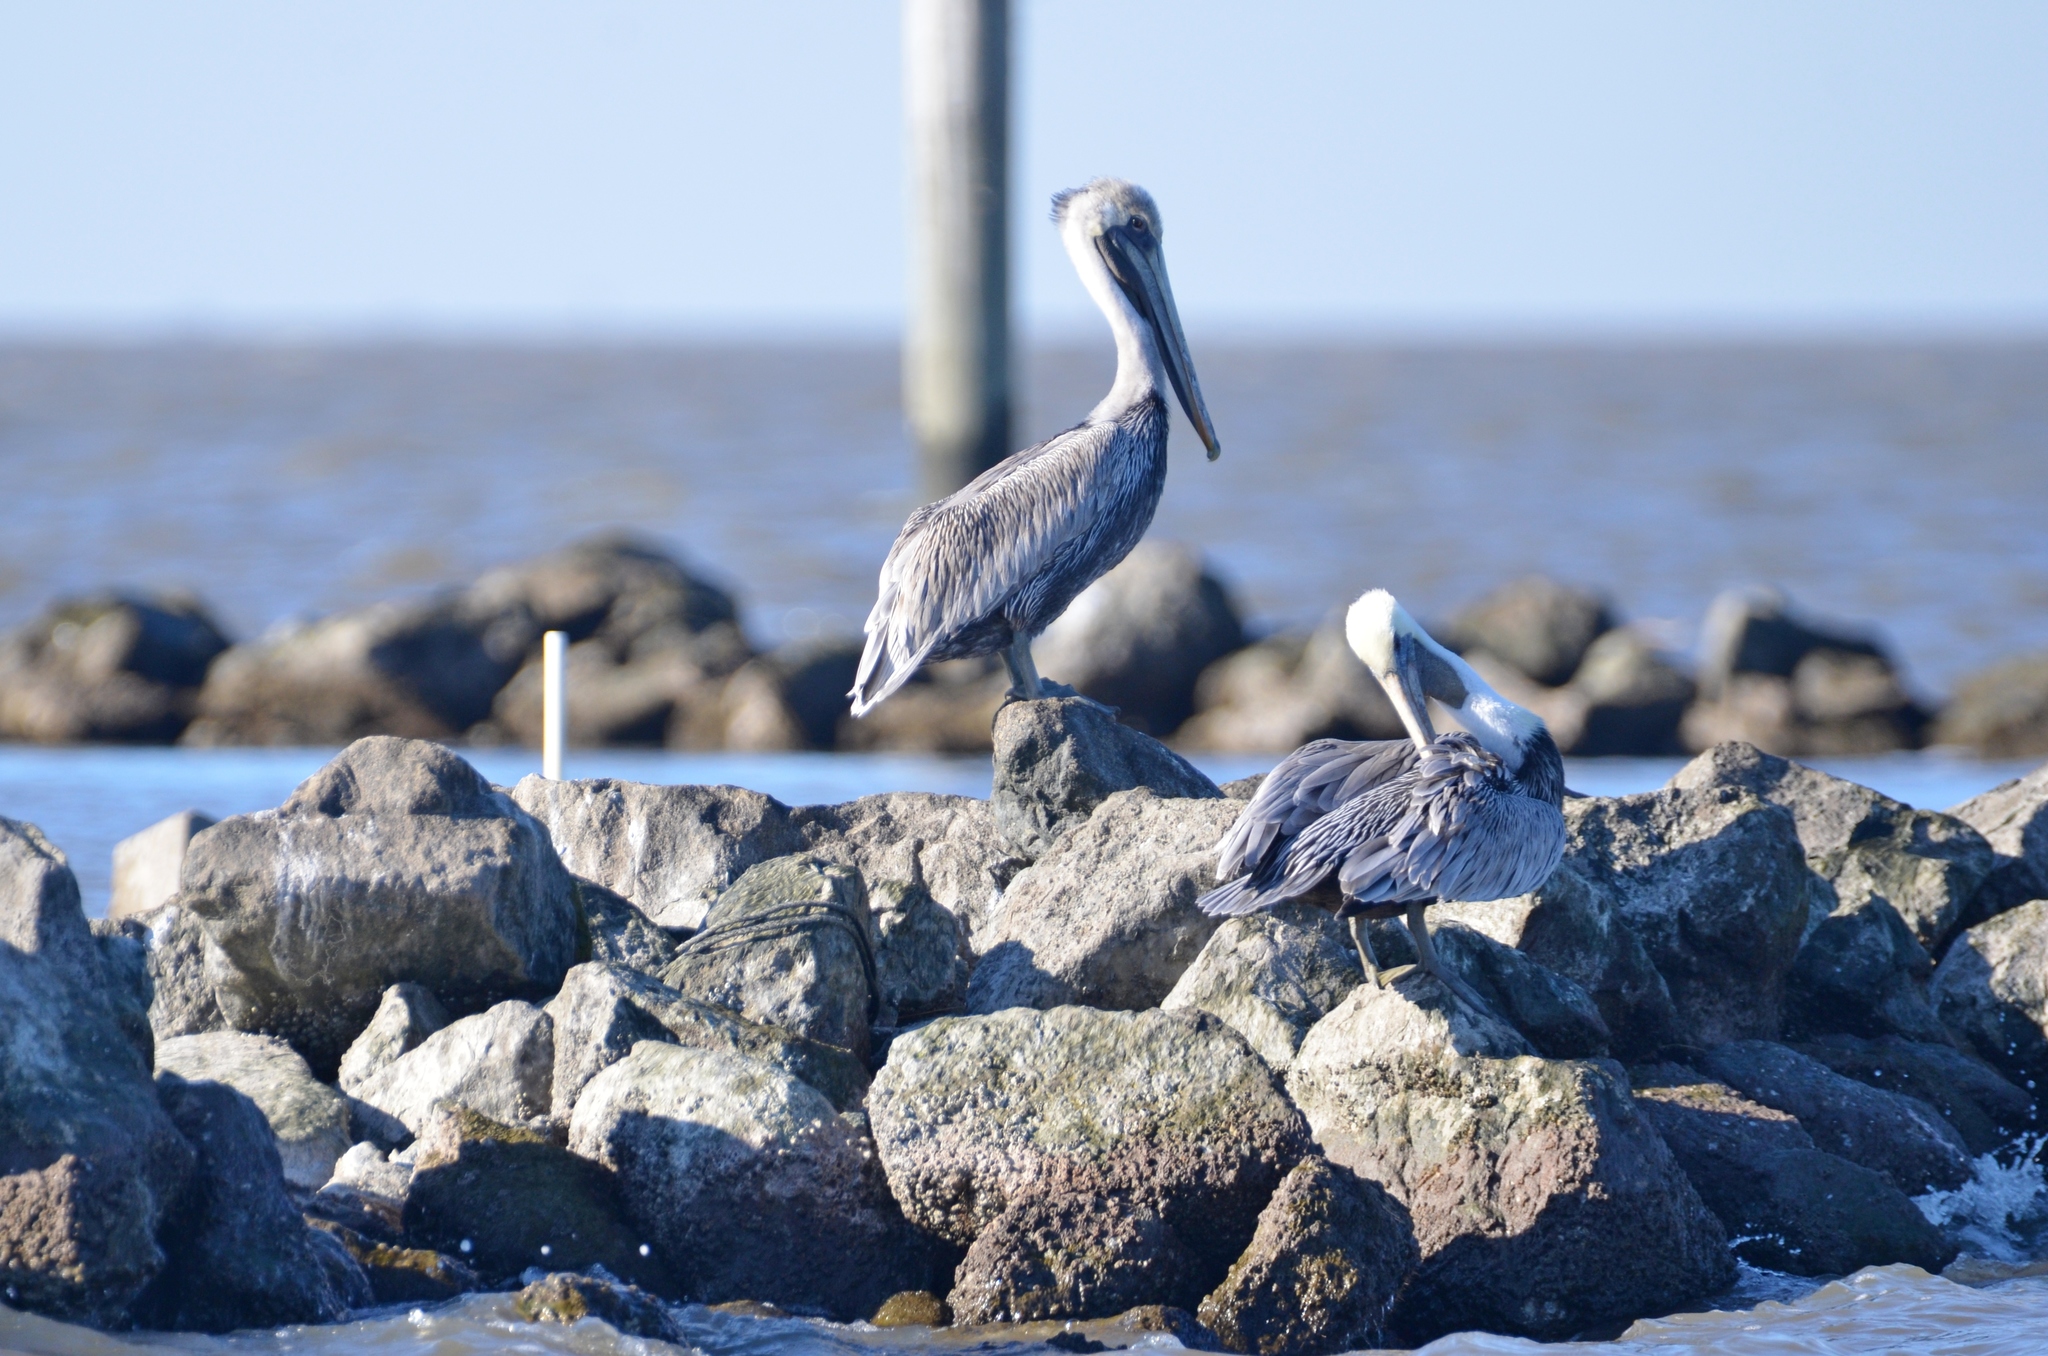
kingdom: Animalia
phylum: Chordata
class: Aves
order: Pelecaniformes
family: Pelecanidae
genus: Pelecanus
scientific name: Pelecanus occidentalis
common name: Brown pelican
